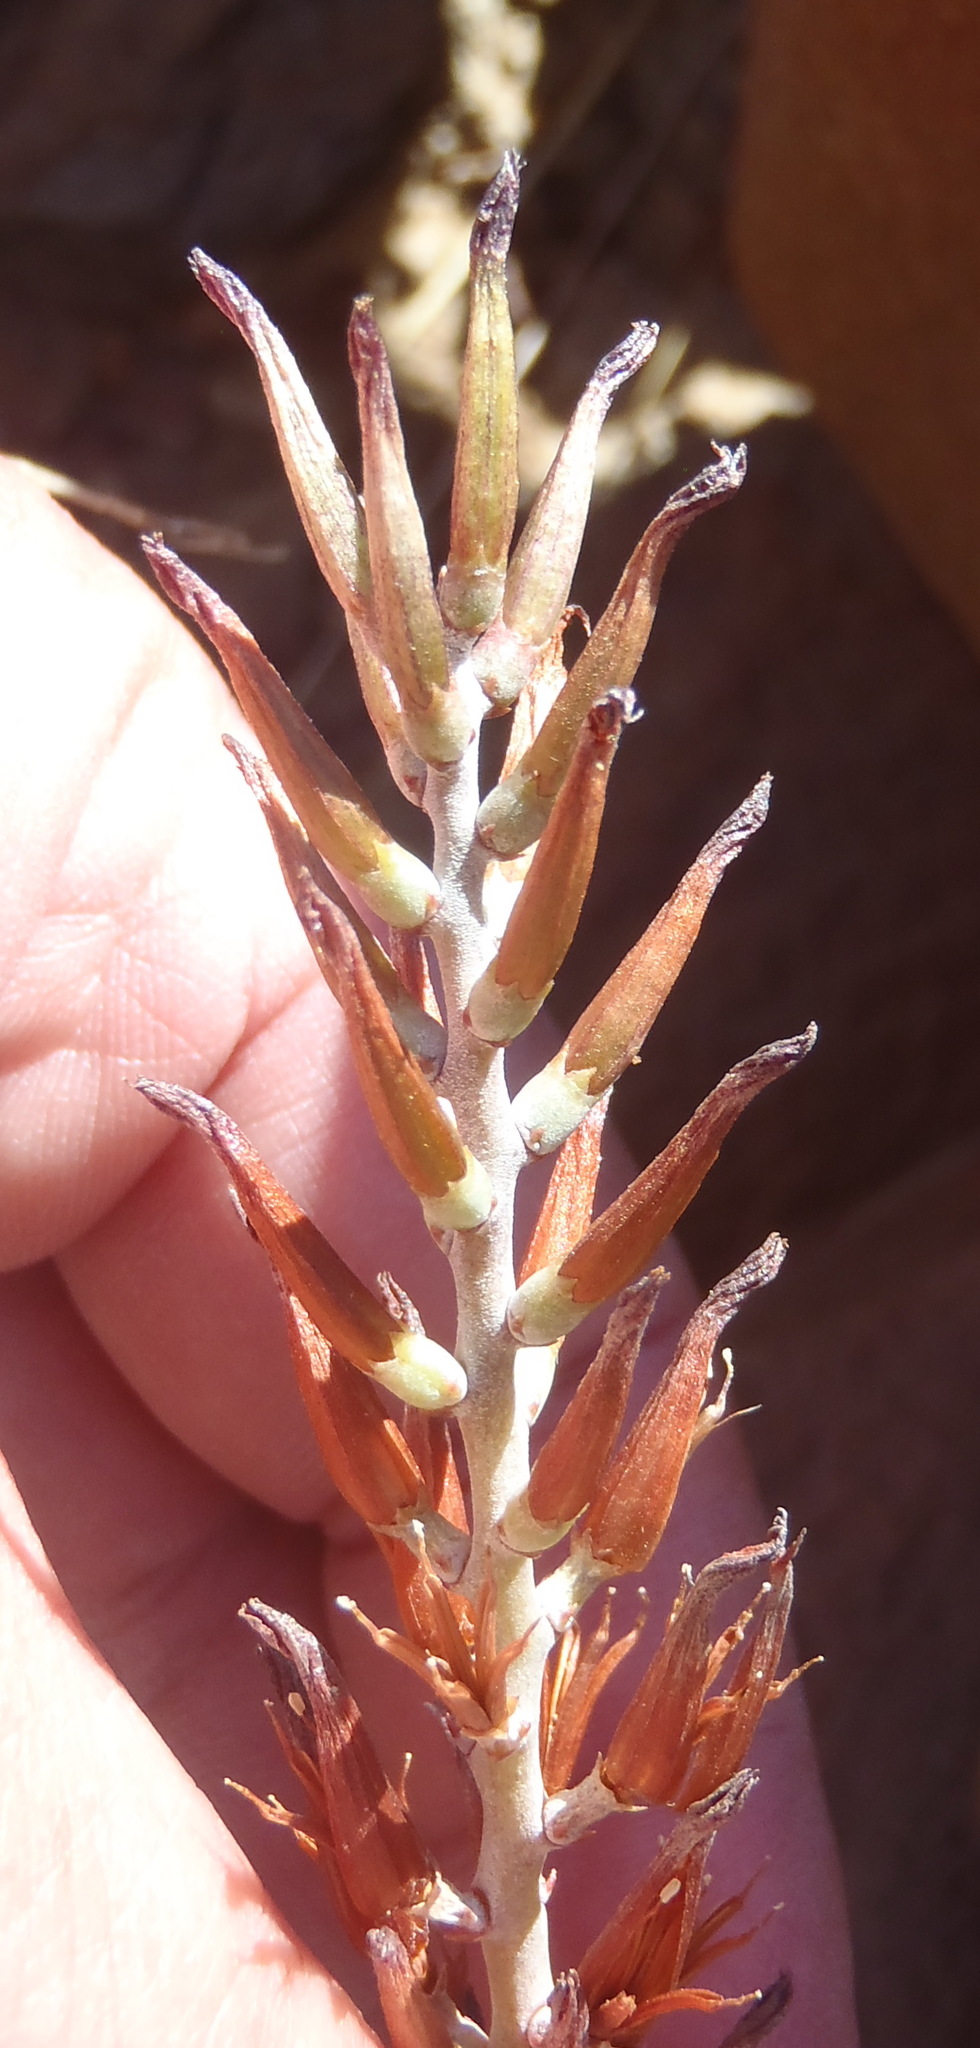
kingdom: Plantae
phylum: Tracheophyta
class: Magnoliopsida
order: Saxifragales
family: Crassulaceae
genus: Adromischus
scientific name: Adromischus triflorus
